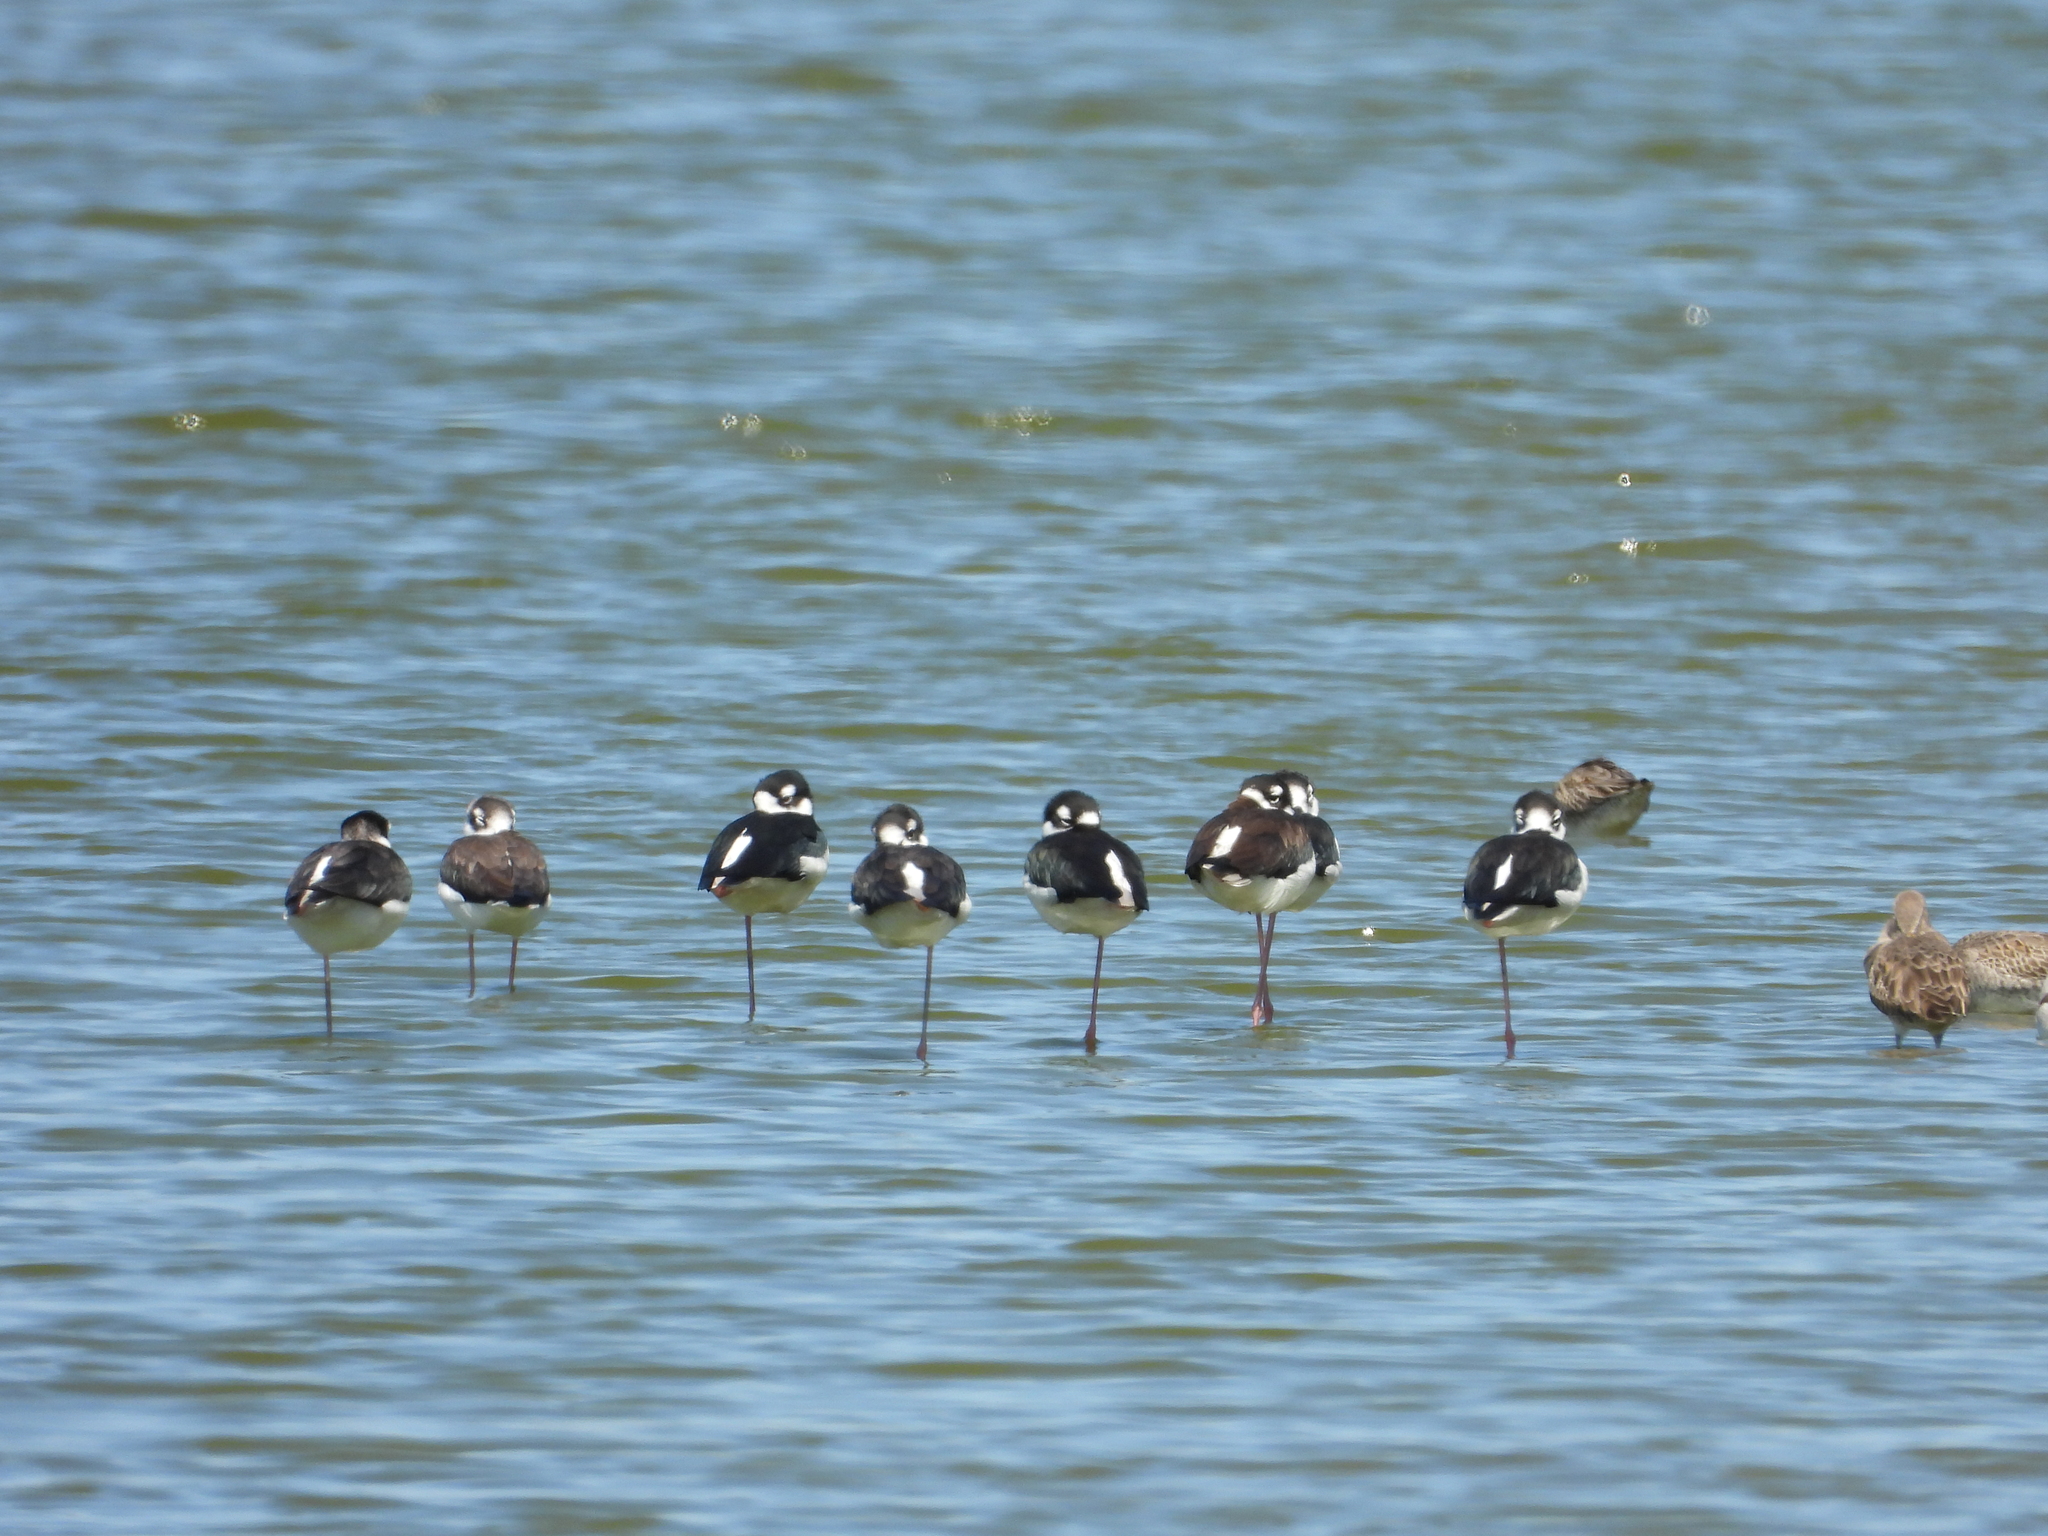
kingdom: Animalia
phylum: Chordata
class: Aves
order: Charadriiformes
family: Recurvirostridae
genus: Himantopus
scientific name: Himantopus mexicanus
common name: Black-necked stilt
